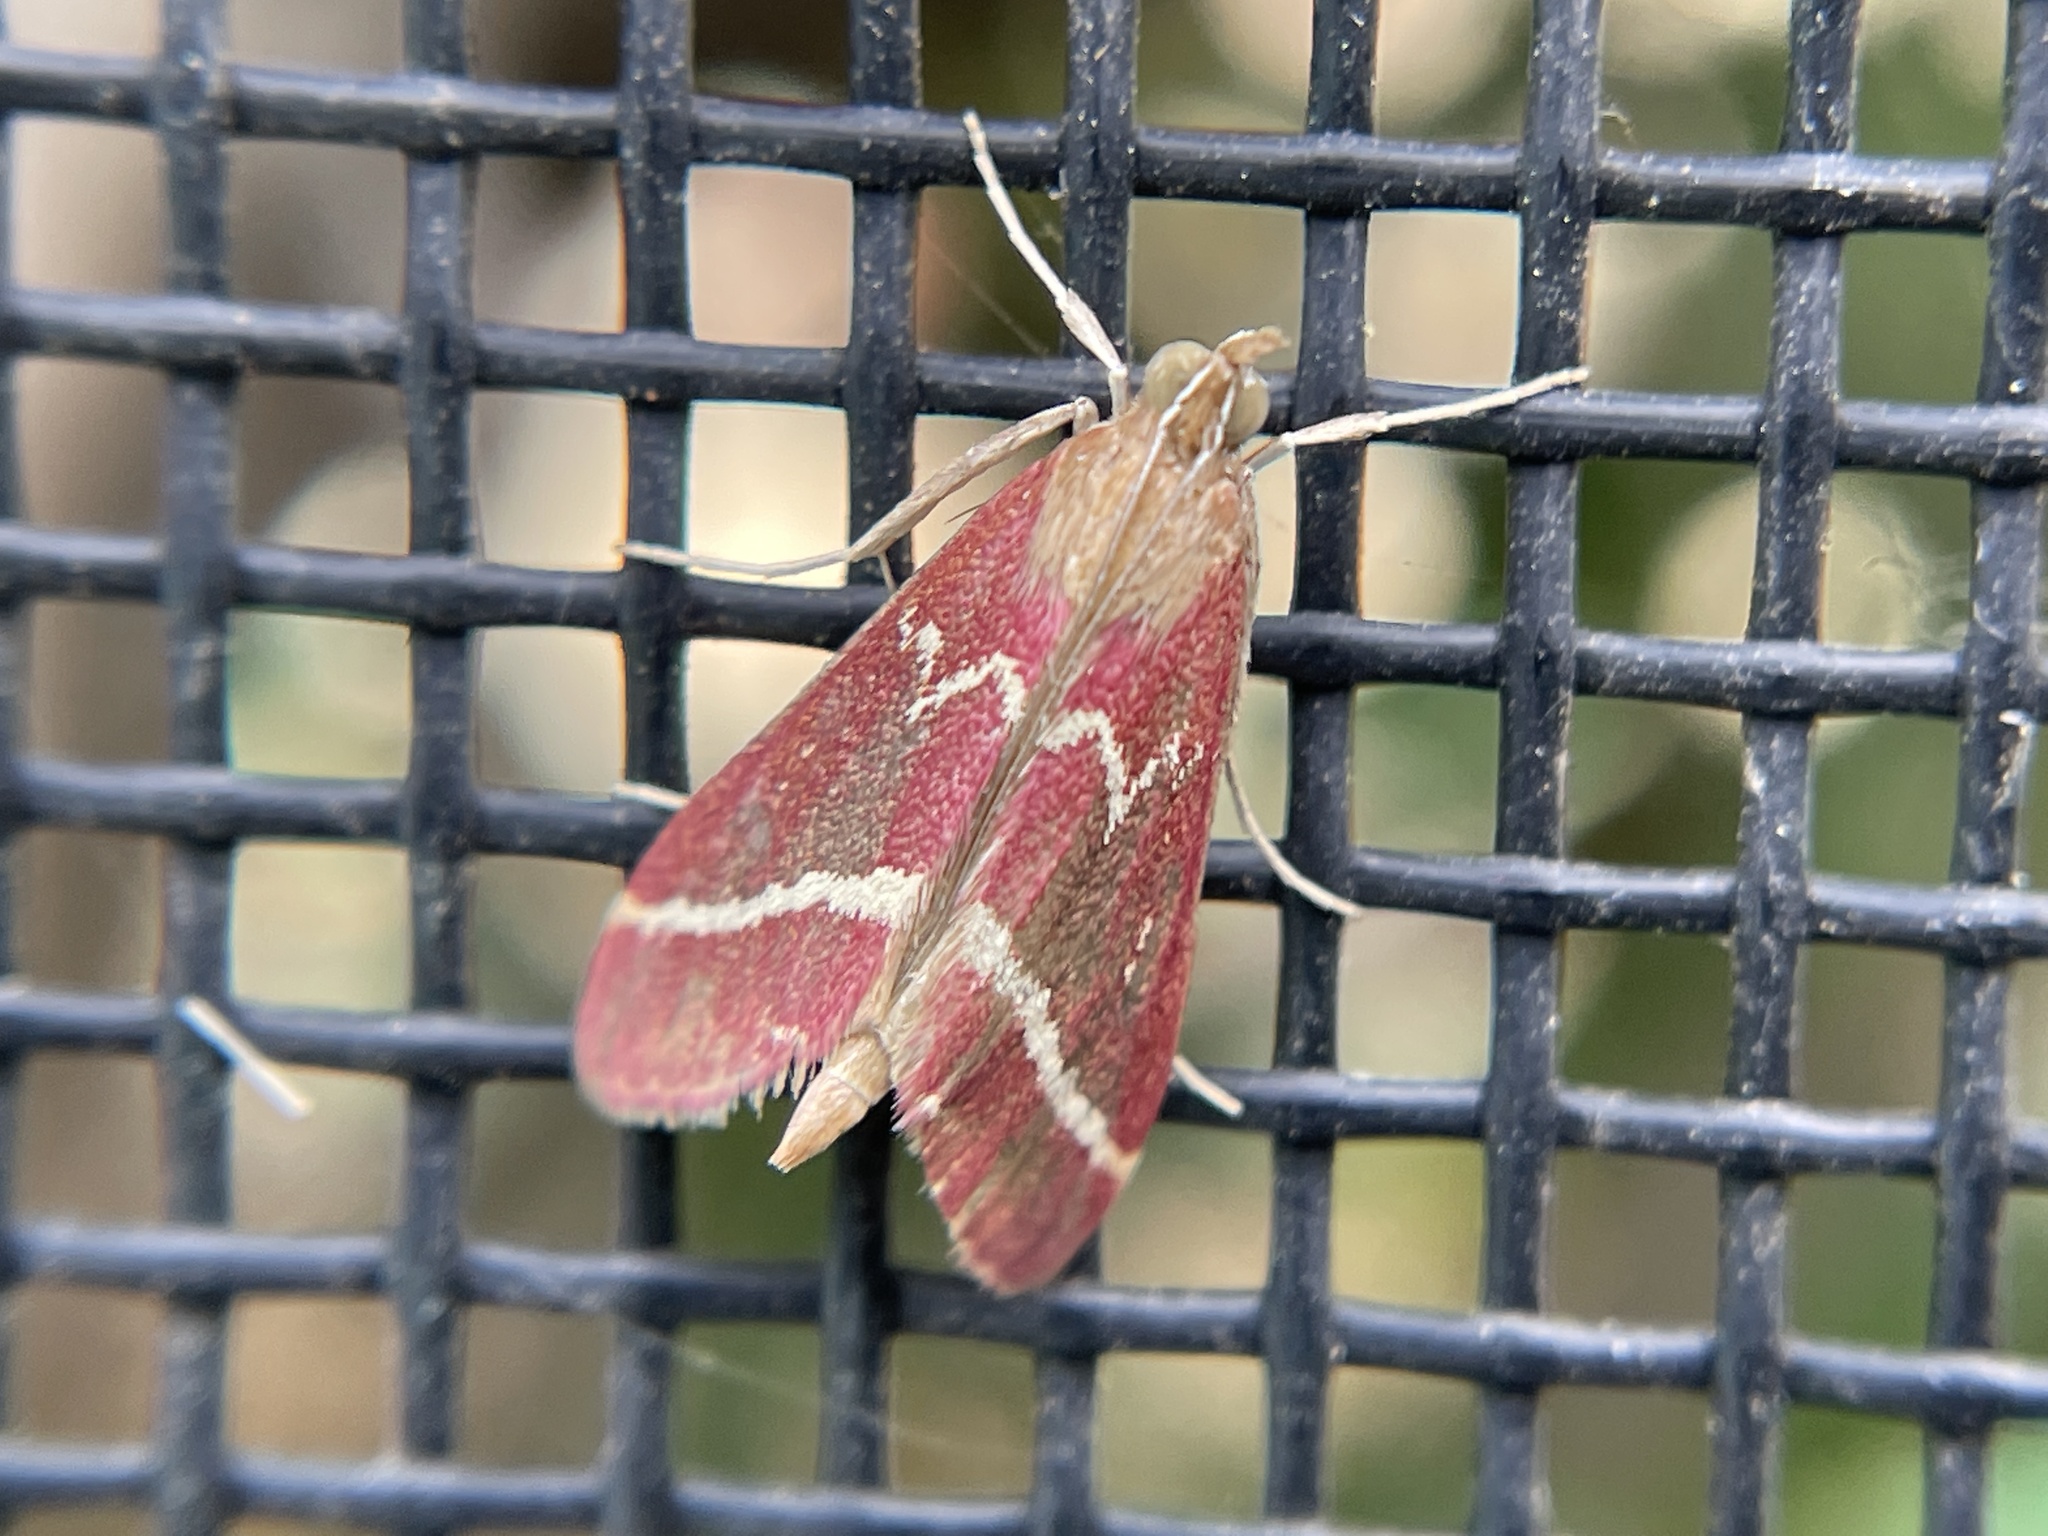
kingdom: Animalia
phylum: Arthropoda
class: Insecta
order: Lepidoptera
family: Crambidae
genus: Pyrausta
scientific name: Pyrausta volupialis
